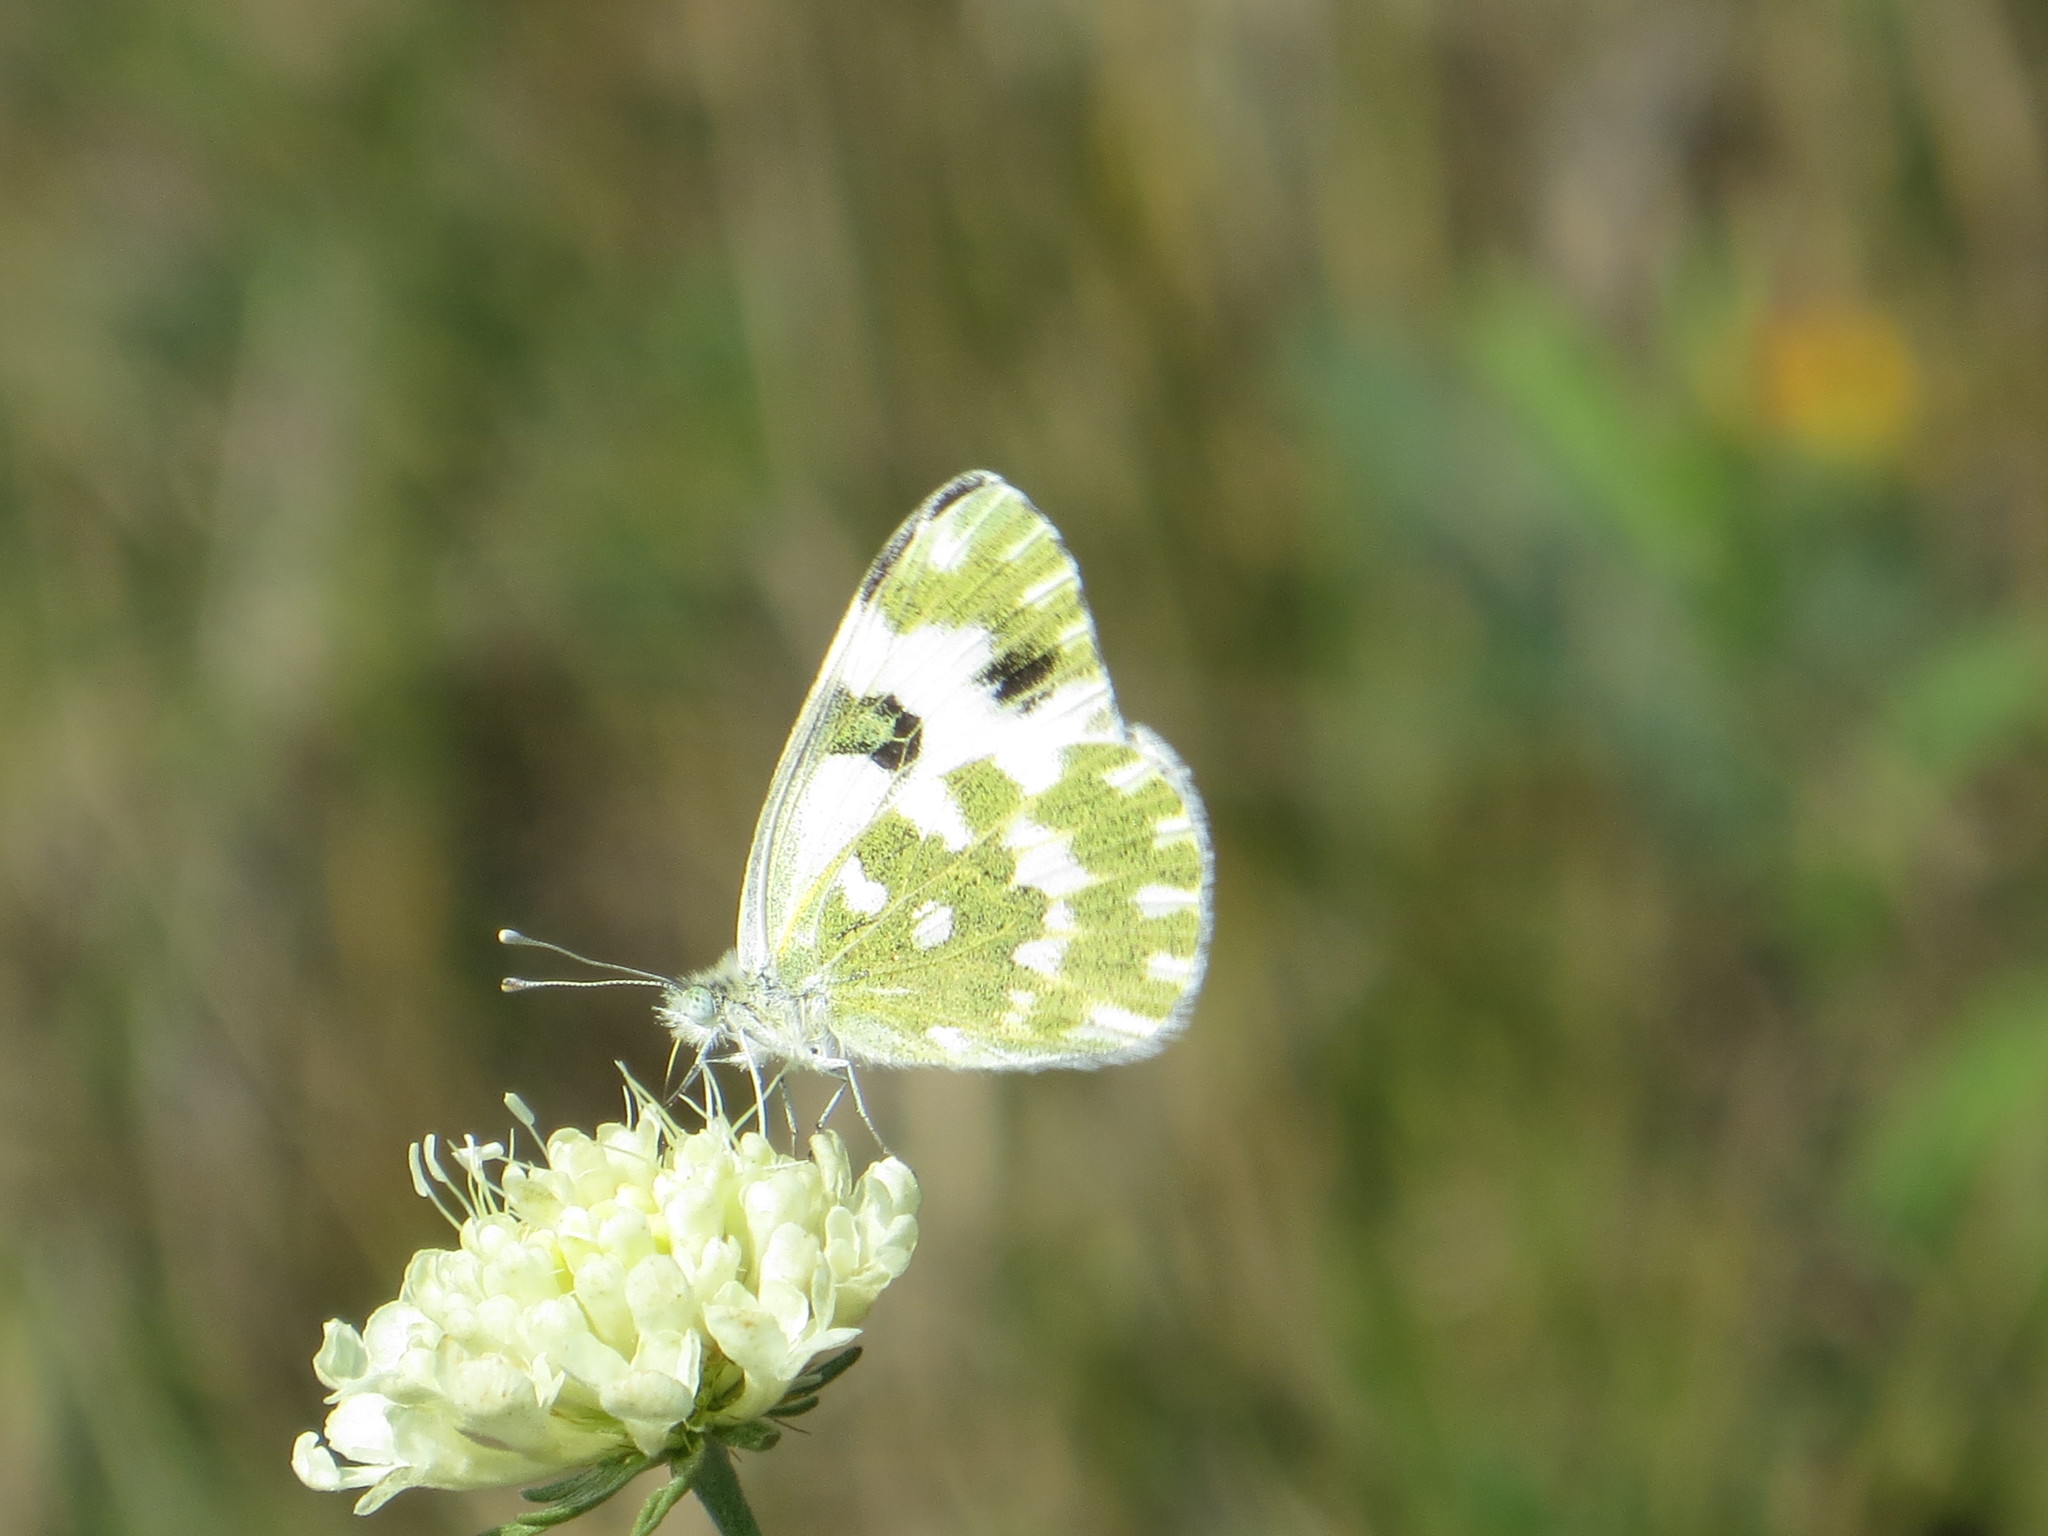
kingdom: Animalia
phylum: Arthropoda
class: Insecta
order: Lepidoptera
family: Pieridae
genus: Pontia
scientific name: Pontia edusa
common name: Eastern bath white
